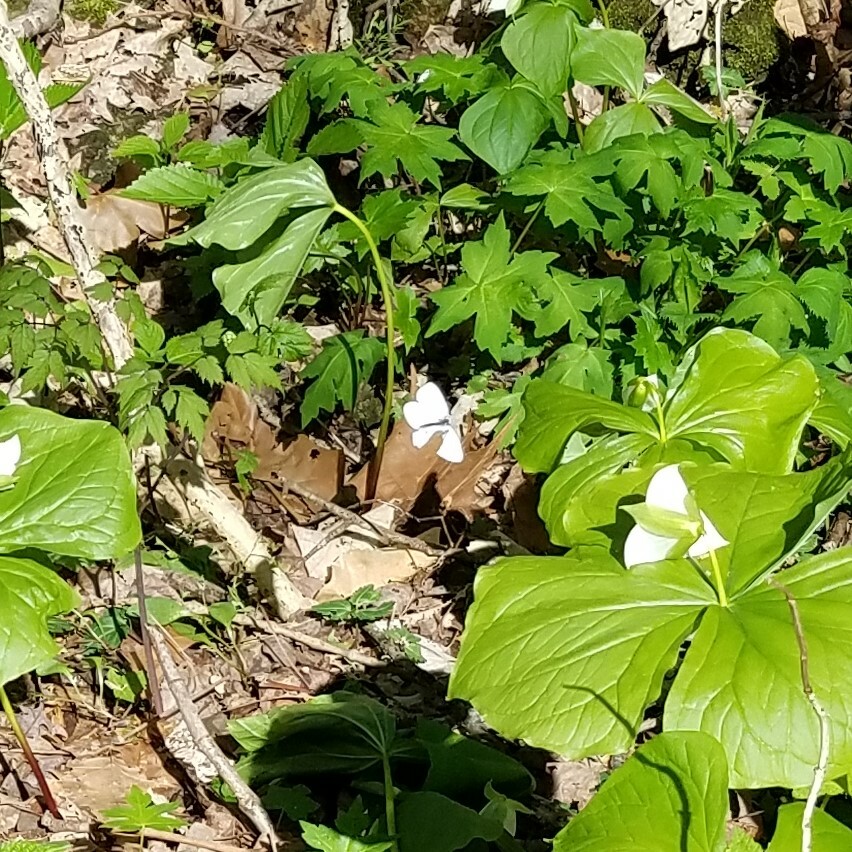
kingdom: Animalia
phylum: Arthropoda
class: Insecta
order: Lepidoptera
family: Pieridae
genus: Pieris
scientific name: Pieris virginiensis
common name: West virginia white
